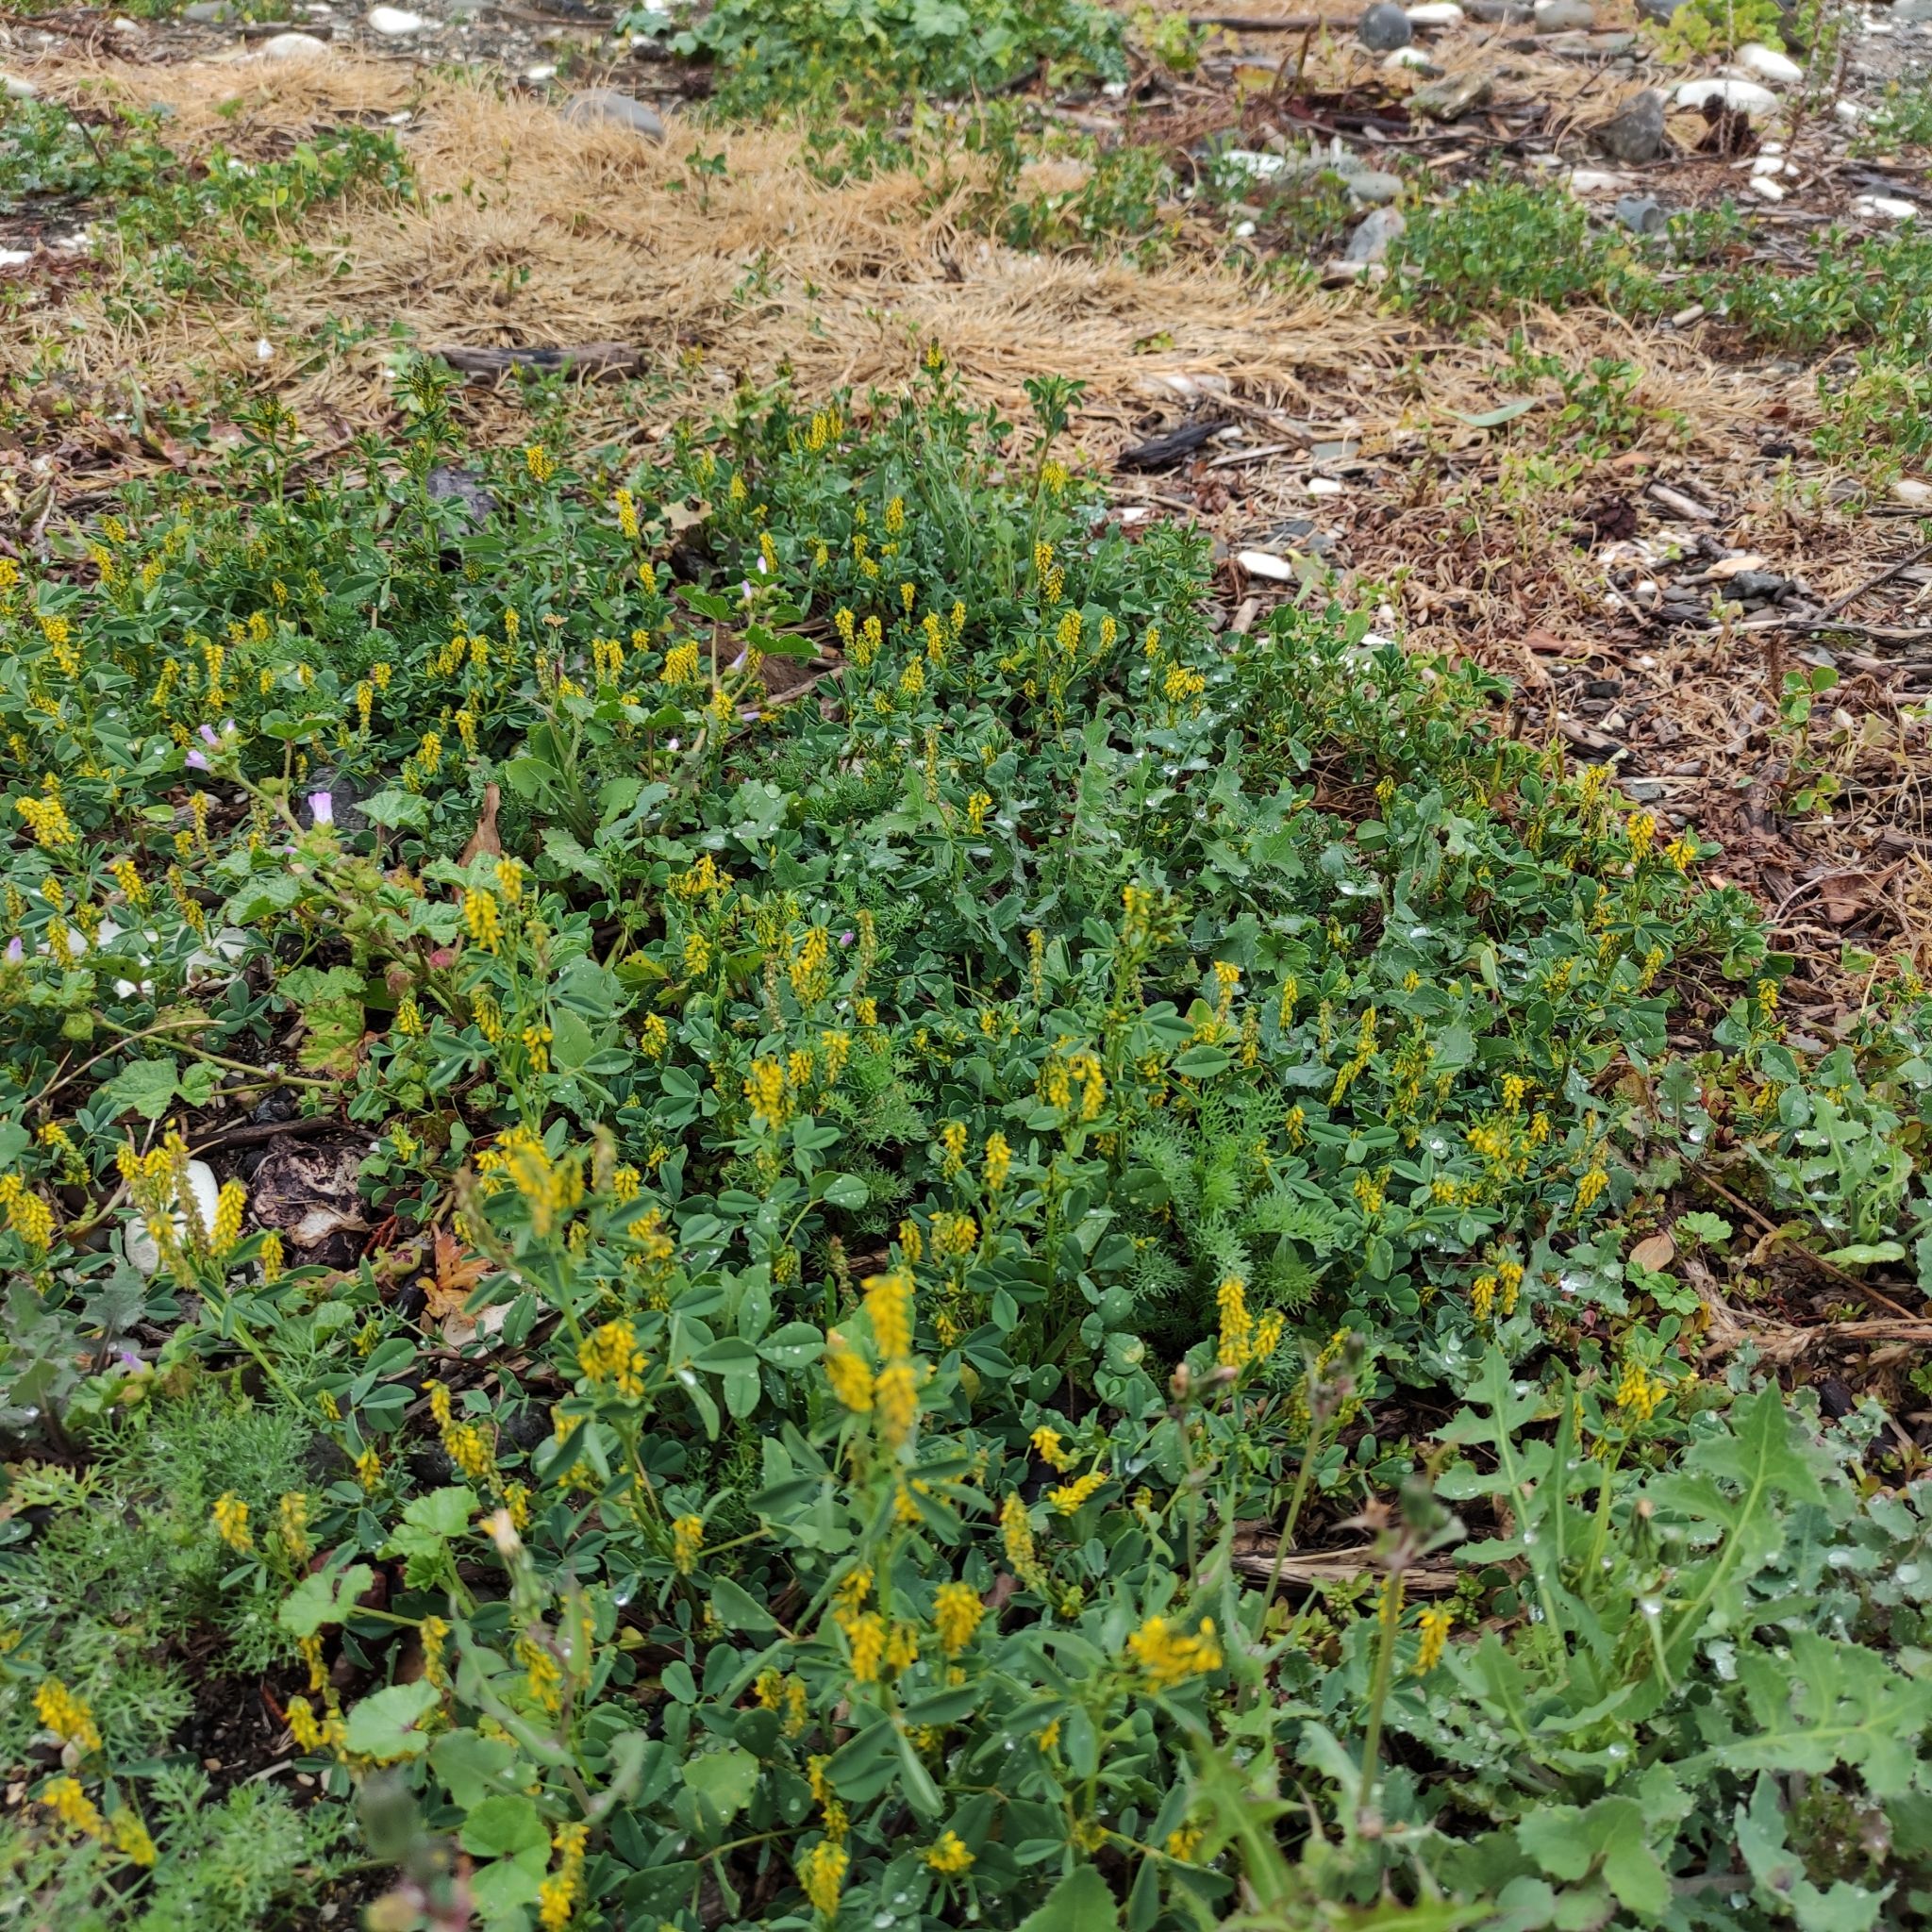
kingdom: Plantae
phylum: Tracheophyta
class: Magnoliopsida
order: Fabales
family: Fabaceae
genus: Melilotus
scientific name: Melilotus indicus
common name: Small melilot
